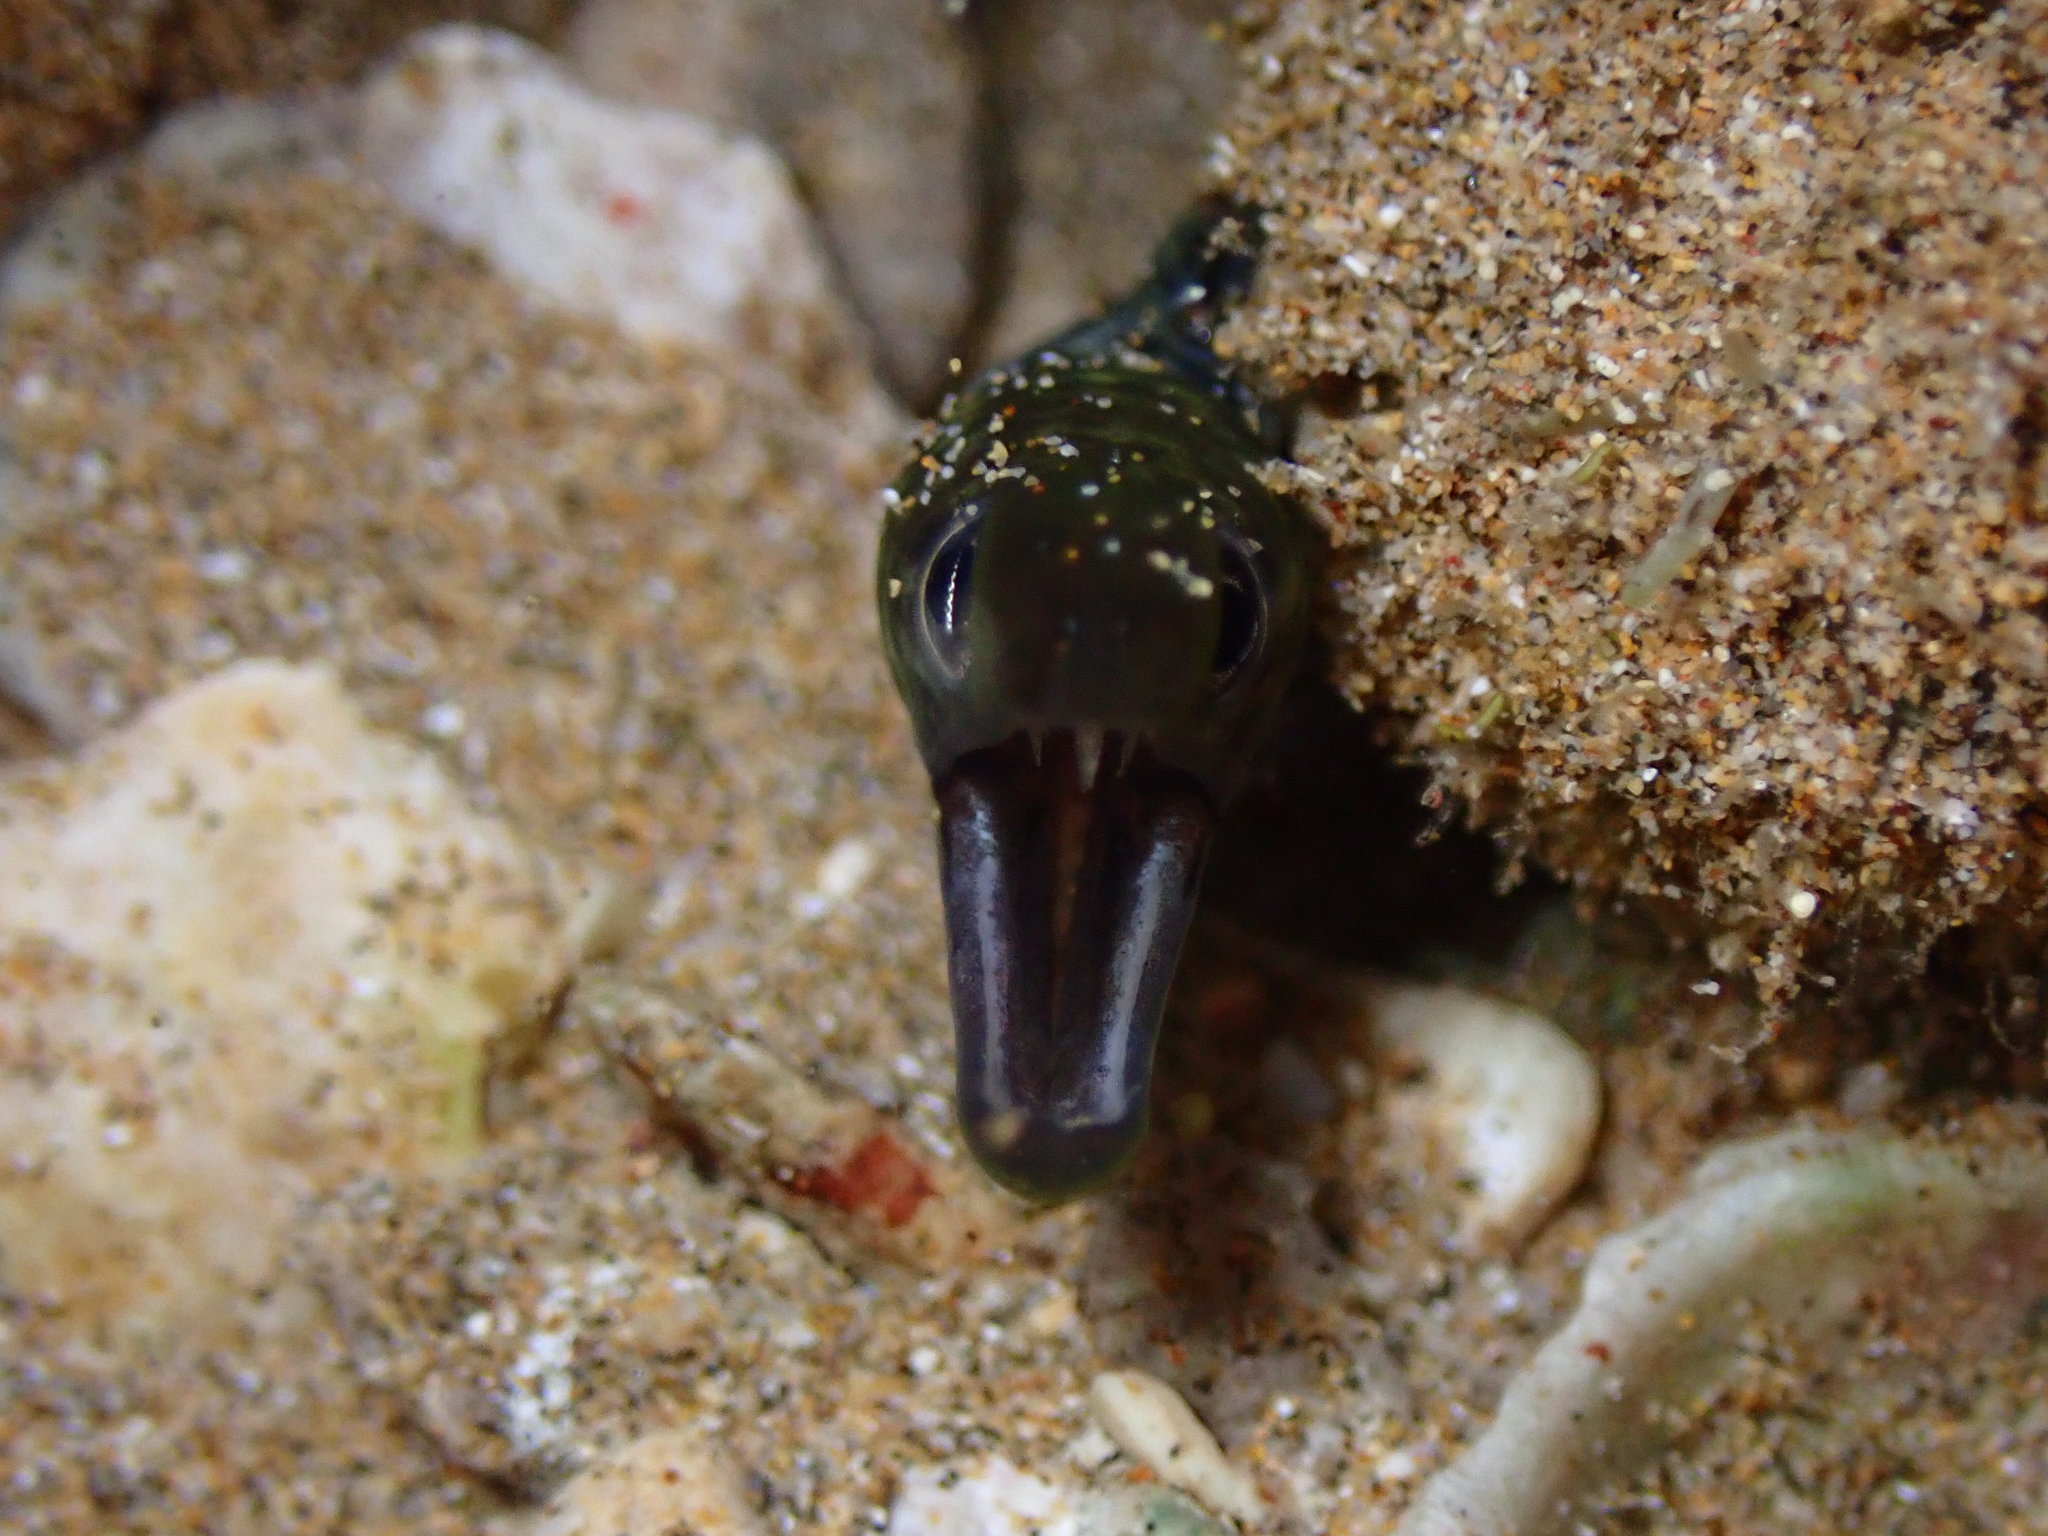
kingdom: Animalia
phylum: Chordata
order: Anguilliformes
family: Muraenidae
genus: Gymnothorax
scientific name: Gymnothorax undulatus
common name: Leopard moray
